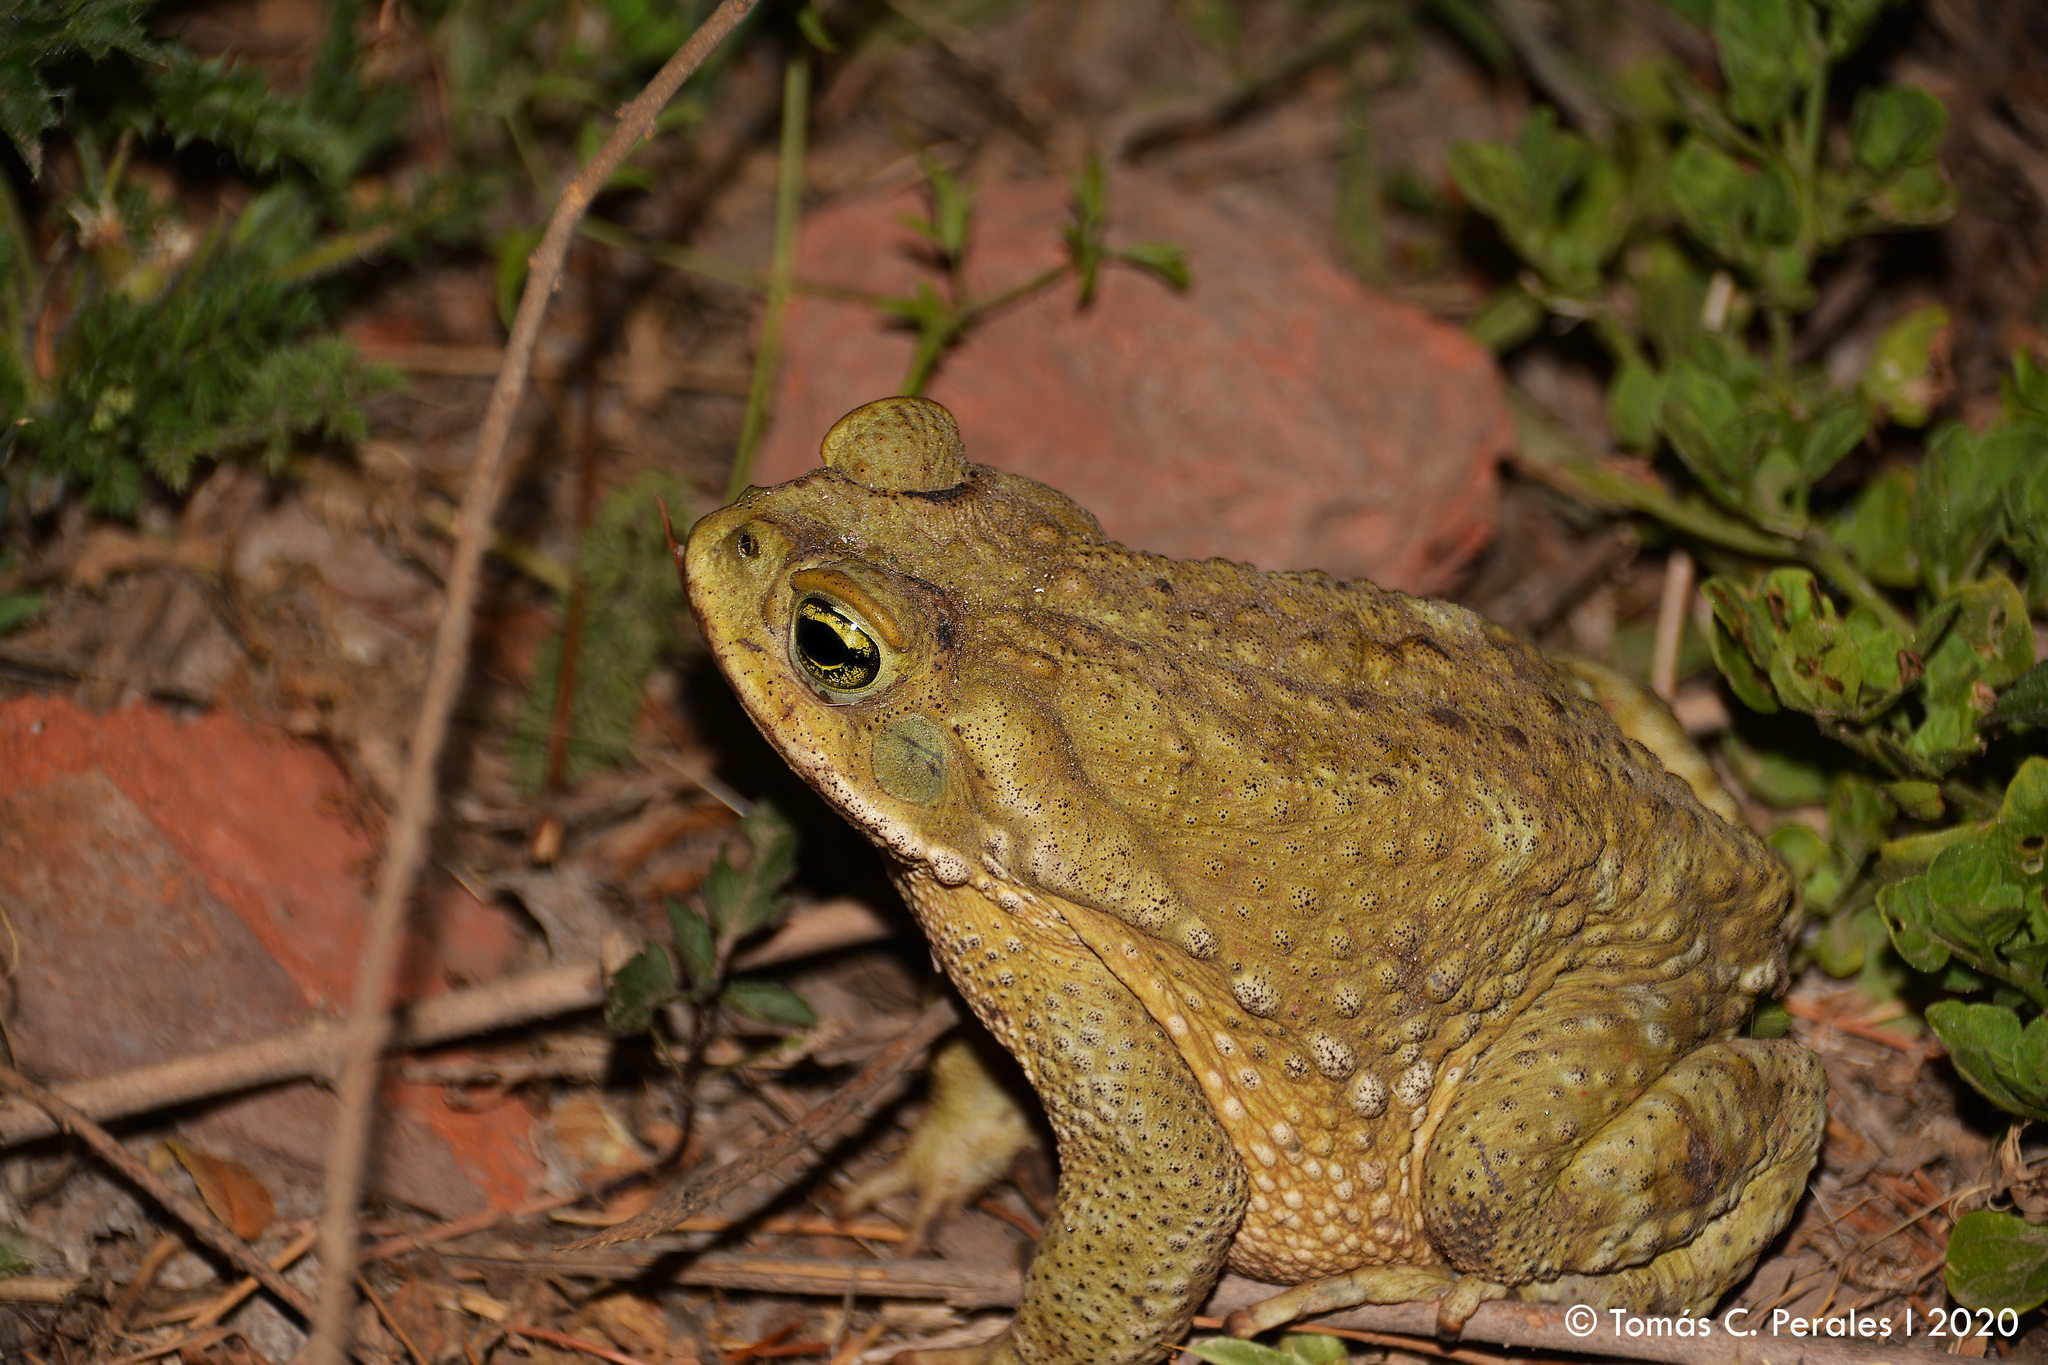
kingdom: Animalia
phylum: Chordata
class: Amphibia
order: Anura
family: Bufonidae
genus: Rhinella
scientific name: Rhinella arenarum
